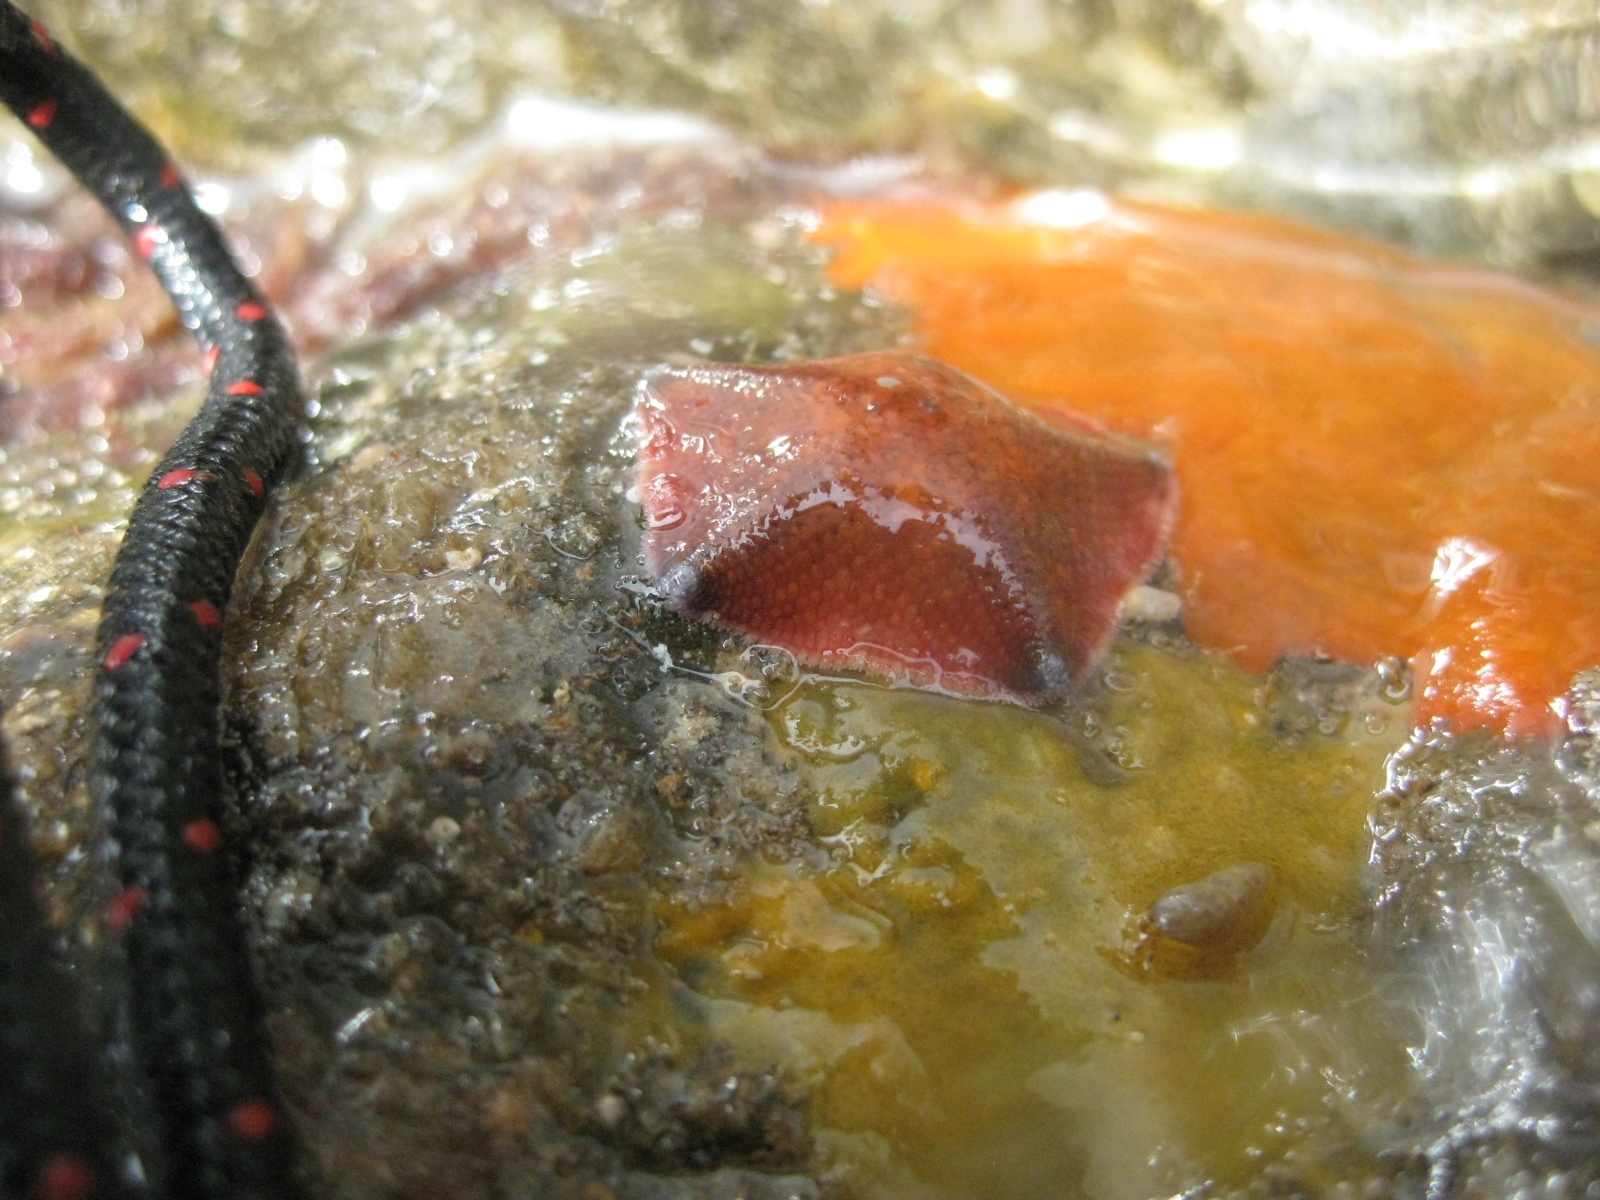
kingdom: Animalia
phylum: Echinodermata
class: Asteroidea
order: Valvatida
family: Asterinidae
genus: Patiriella
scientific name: Patiriella regularis
